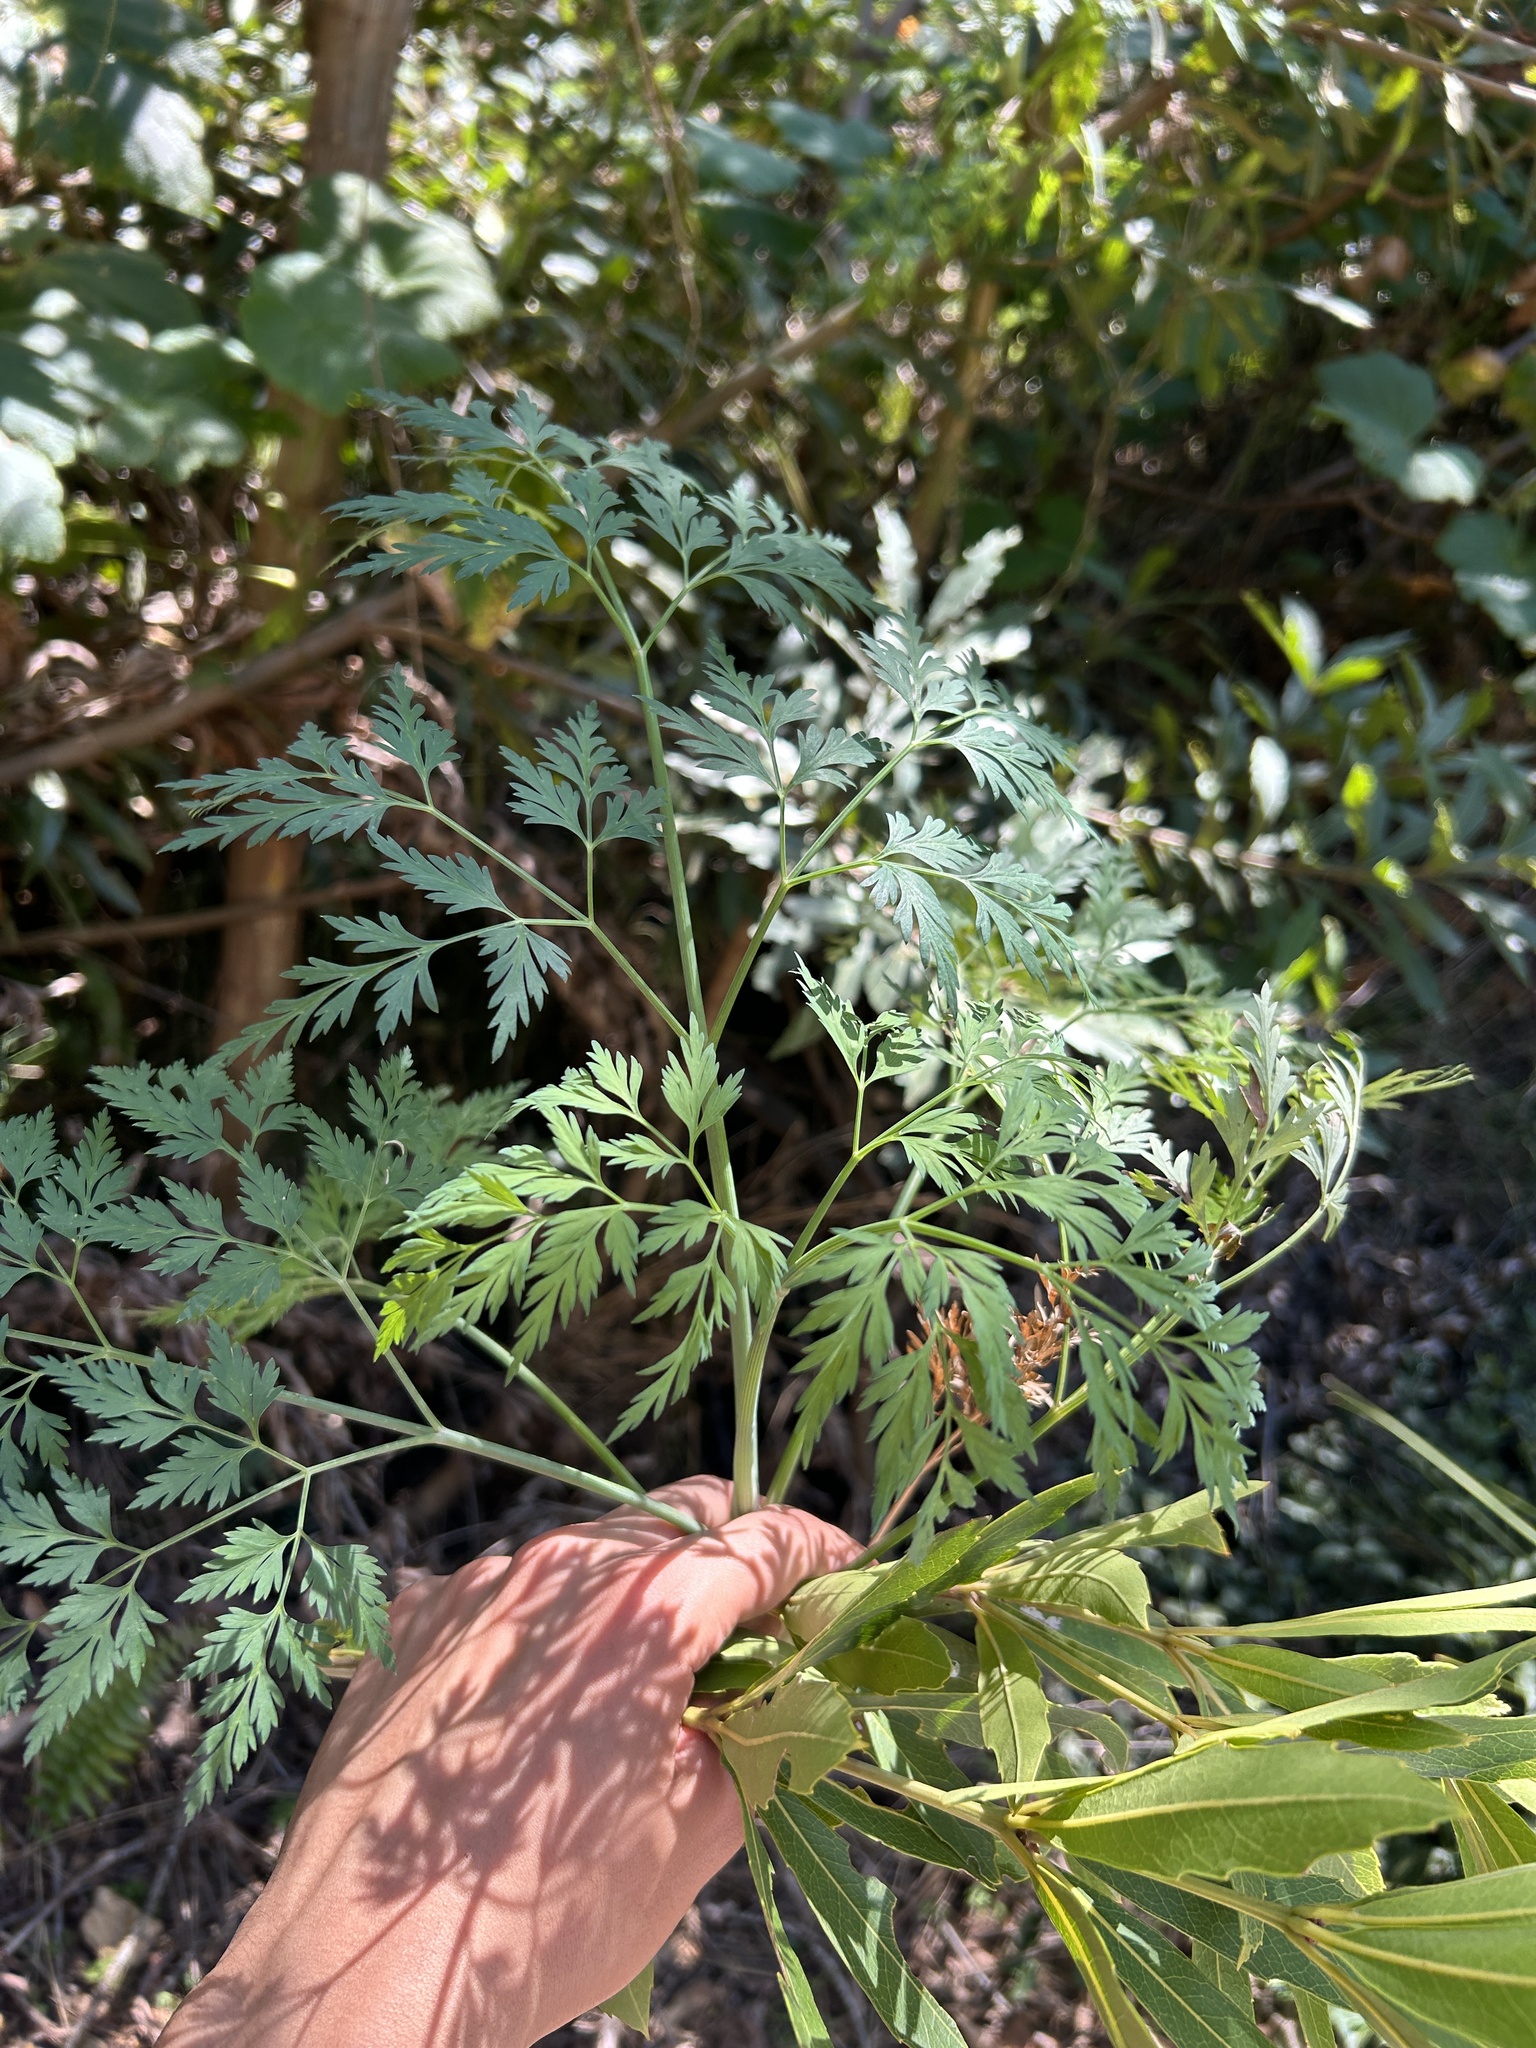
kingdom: Plantae
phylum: Tracheophyta
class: Magnoliopsida
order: Apiales
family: Apiaceae
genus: Notobubon
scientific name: Notobubon gummiferum
